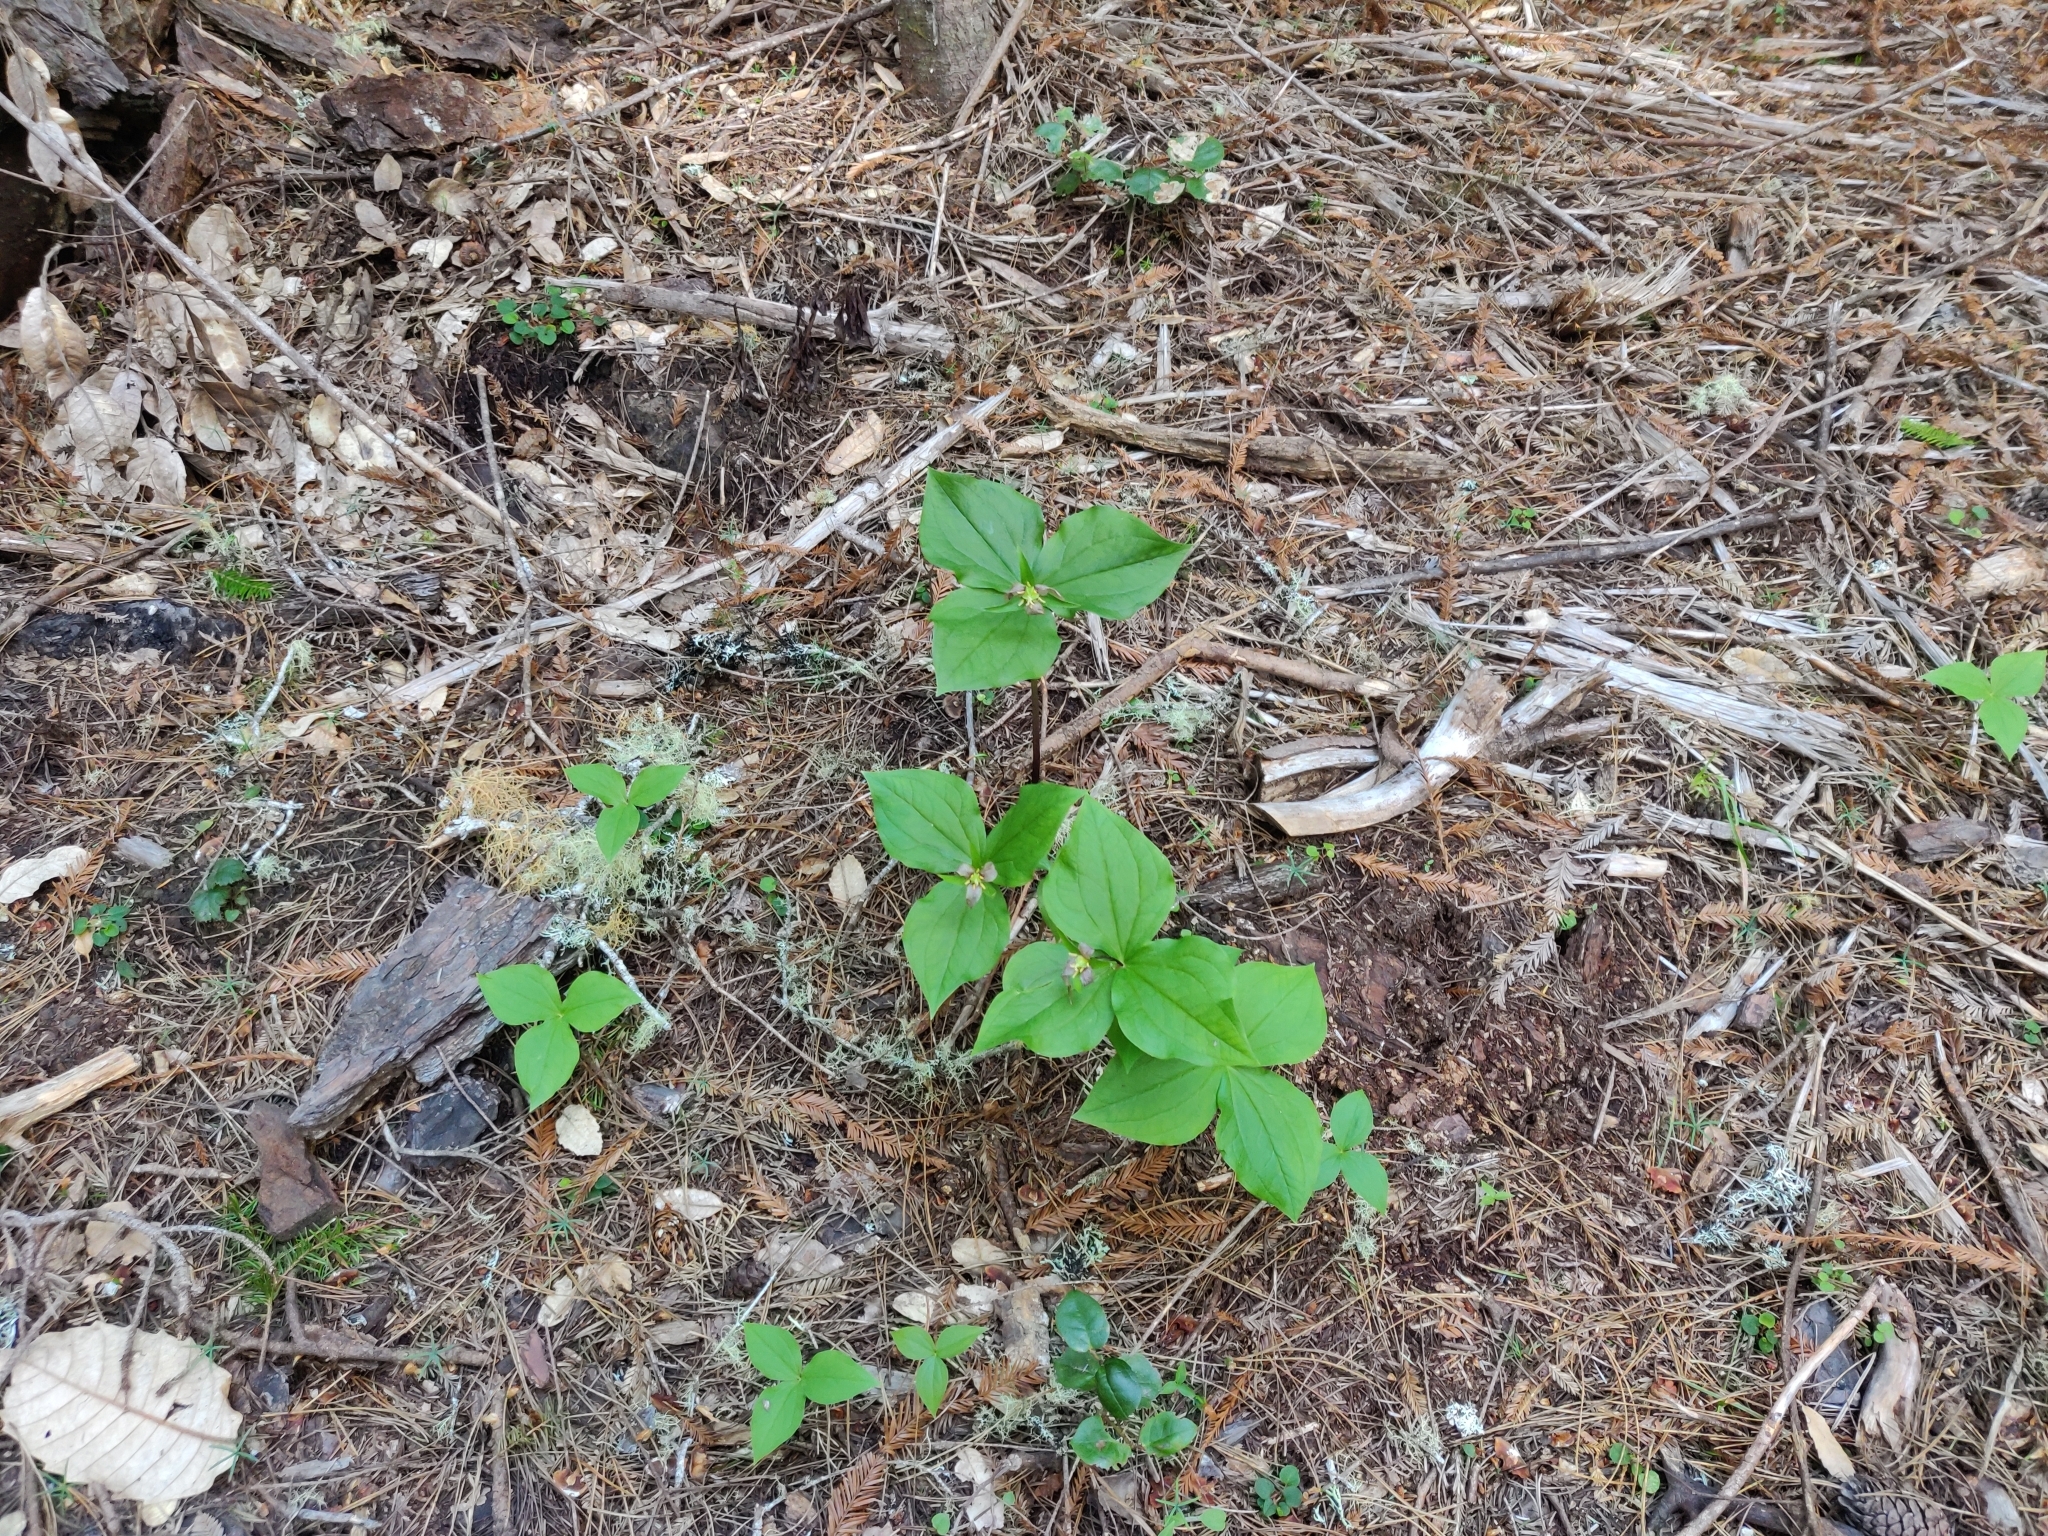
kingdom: Plantae
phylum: Tracheophyta
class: Liliopsida
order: Liliales
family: Melanthiaceae
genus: Trillium
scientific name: Trillium ovatum
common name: Pacific trillium
